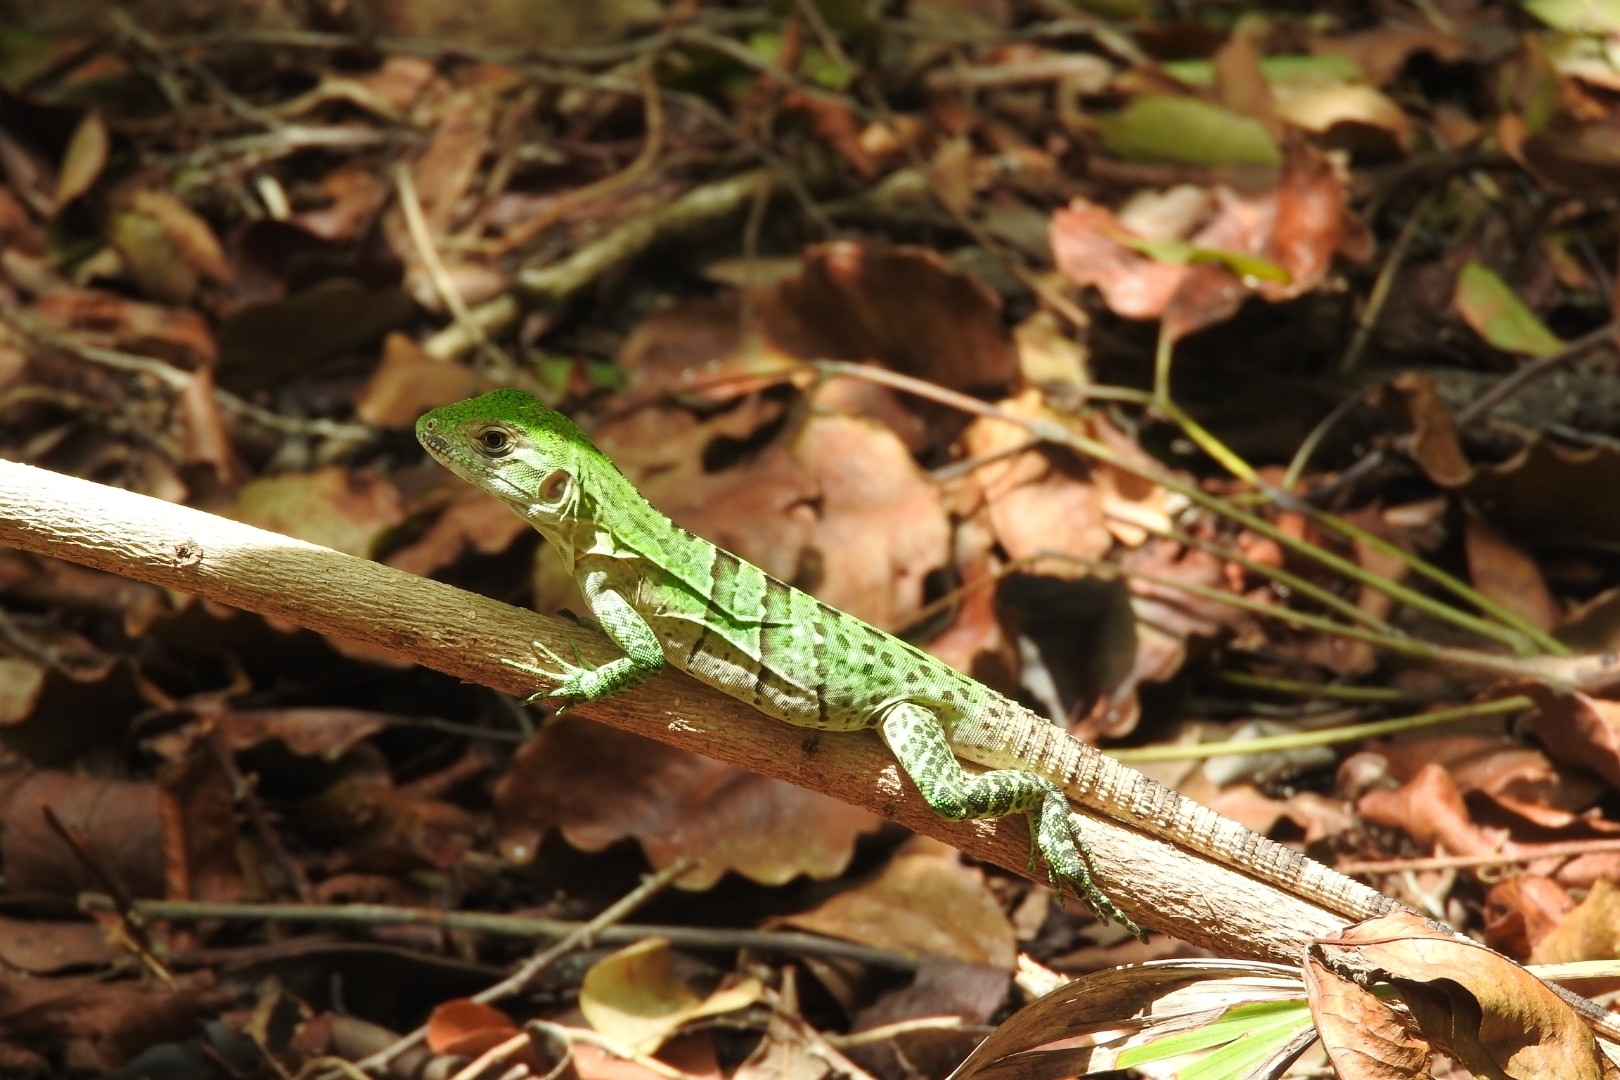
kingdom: Animalia
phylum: Chordata
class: Squamata
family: Iguanidae
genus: Ctenosaura
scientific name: Ctenosaura similis
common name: Black spiny-tailed iguana
